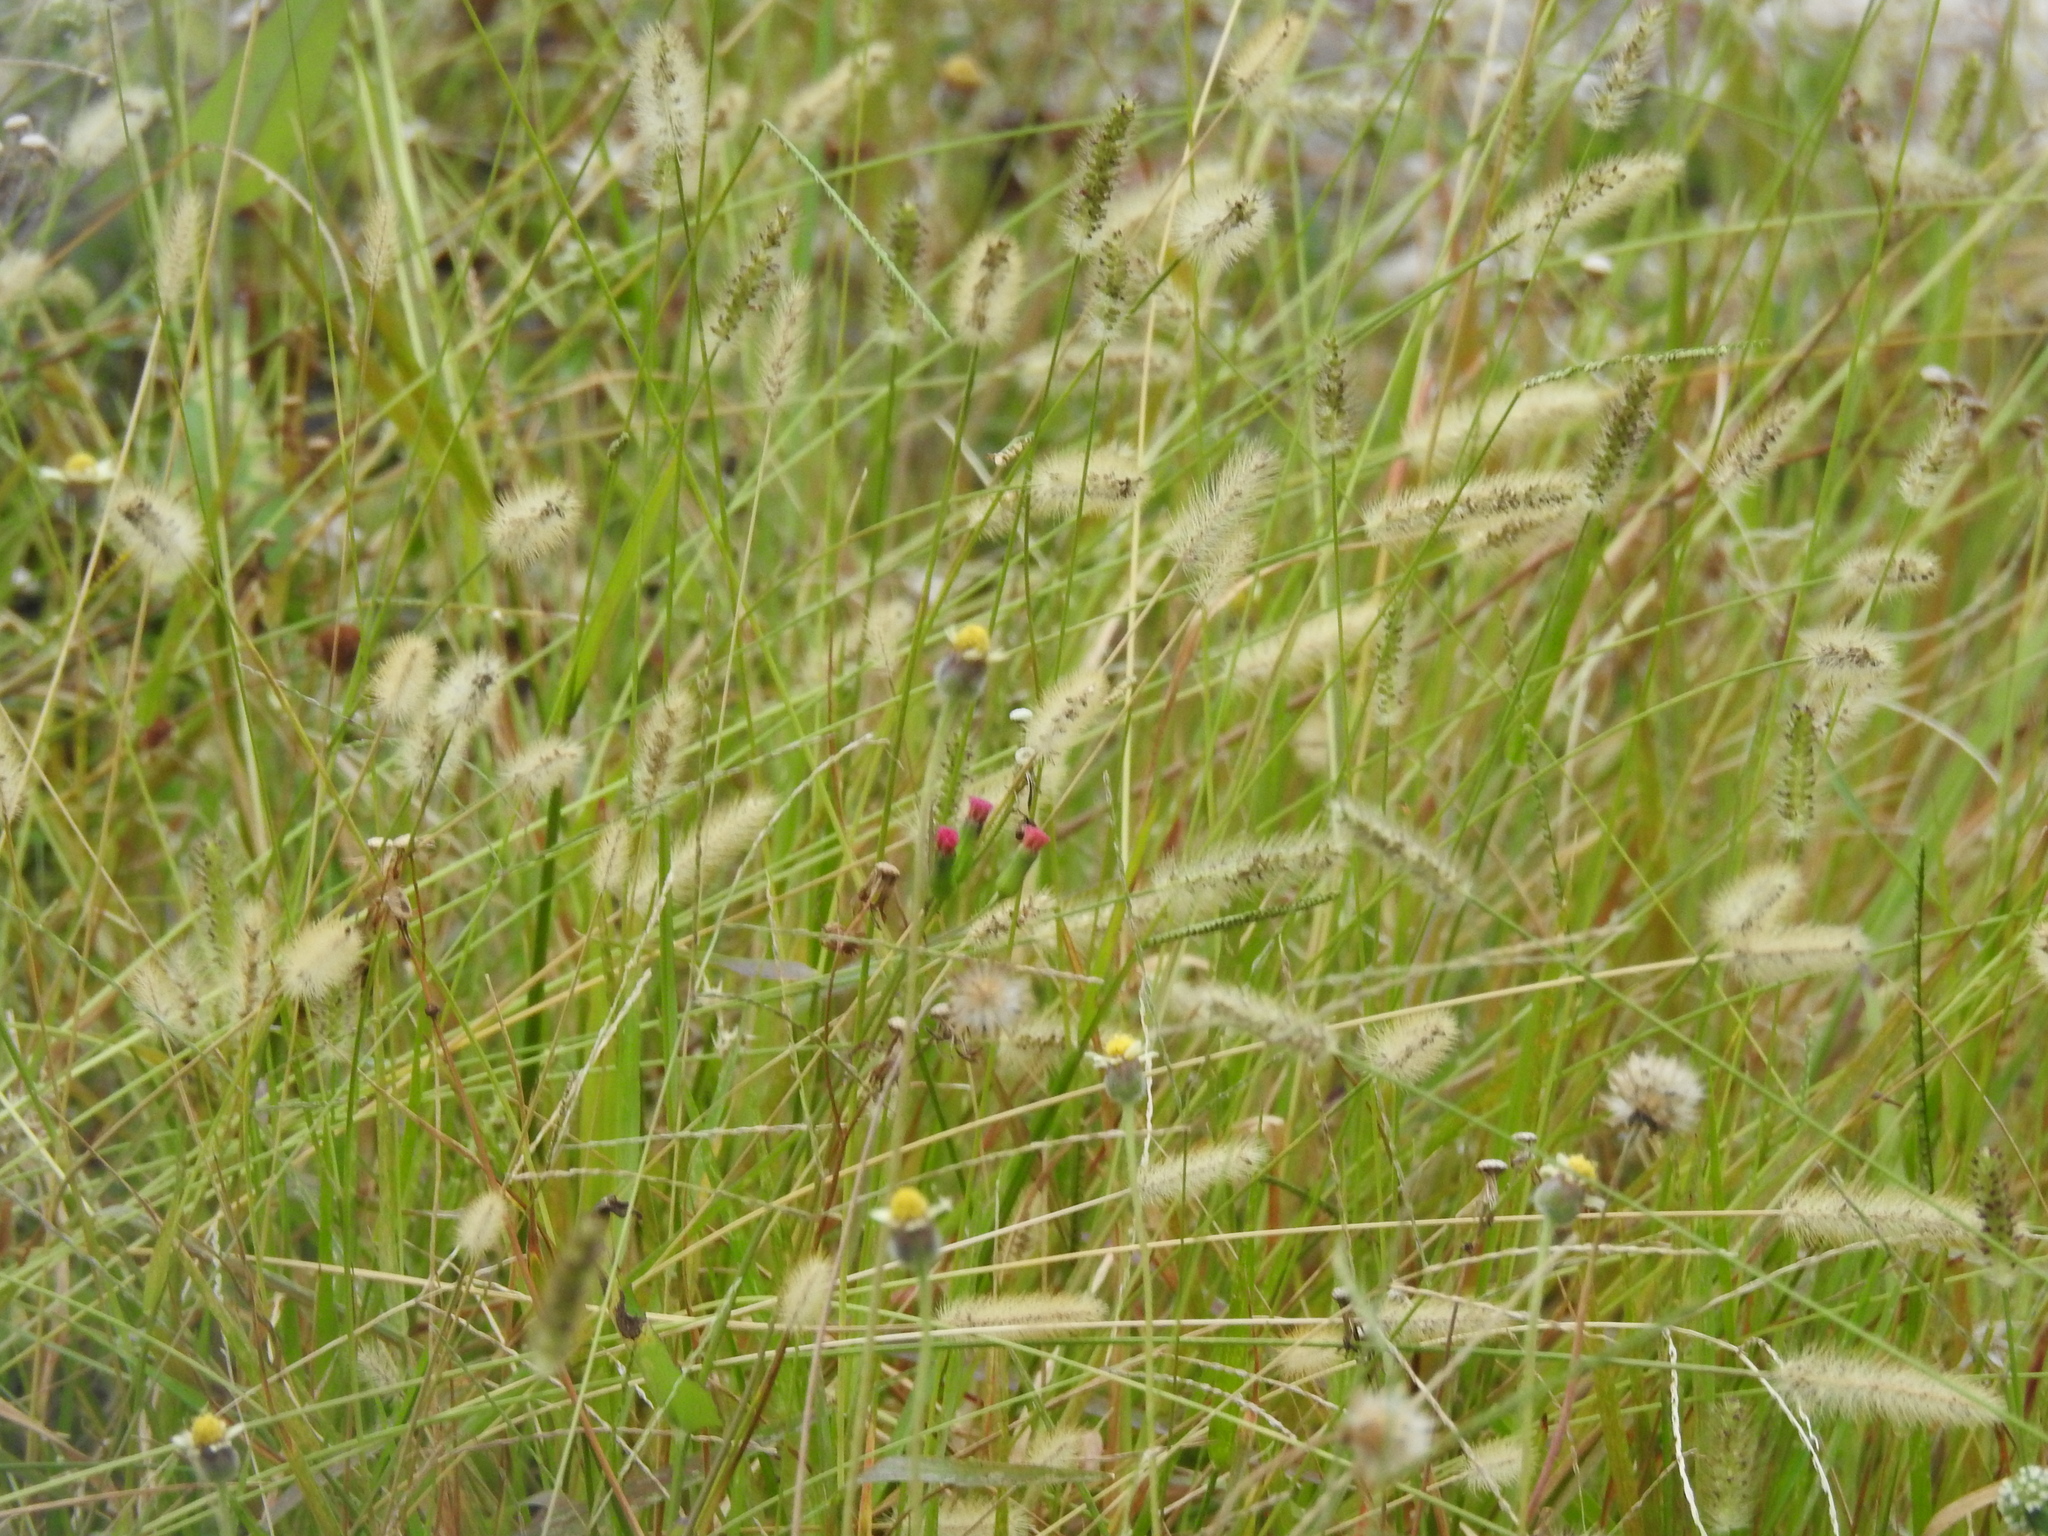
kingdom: Plantae
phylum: Tracheophyta
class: Liliopsida
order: Poales
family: Poaceae
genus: Setaria
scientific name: Setaria parviflora
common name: Knotroot bristle-grass
